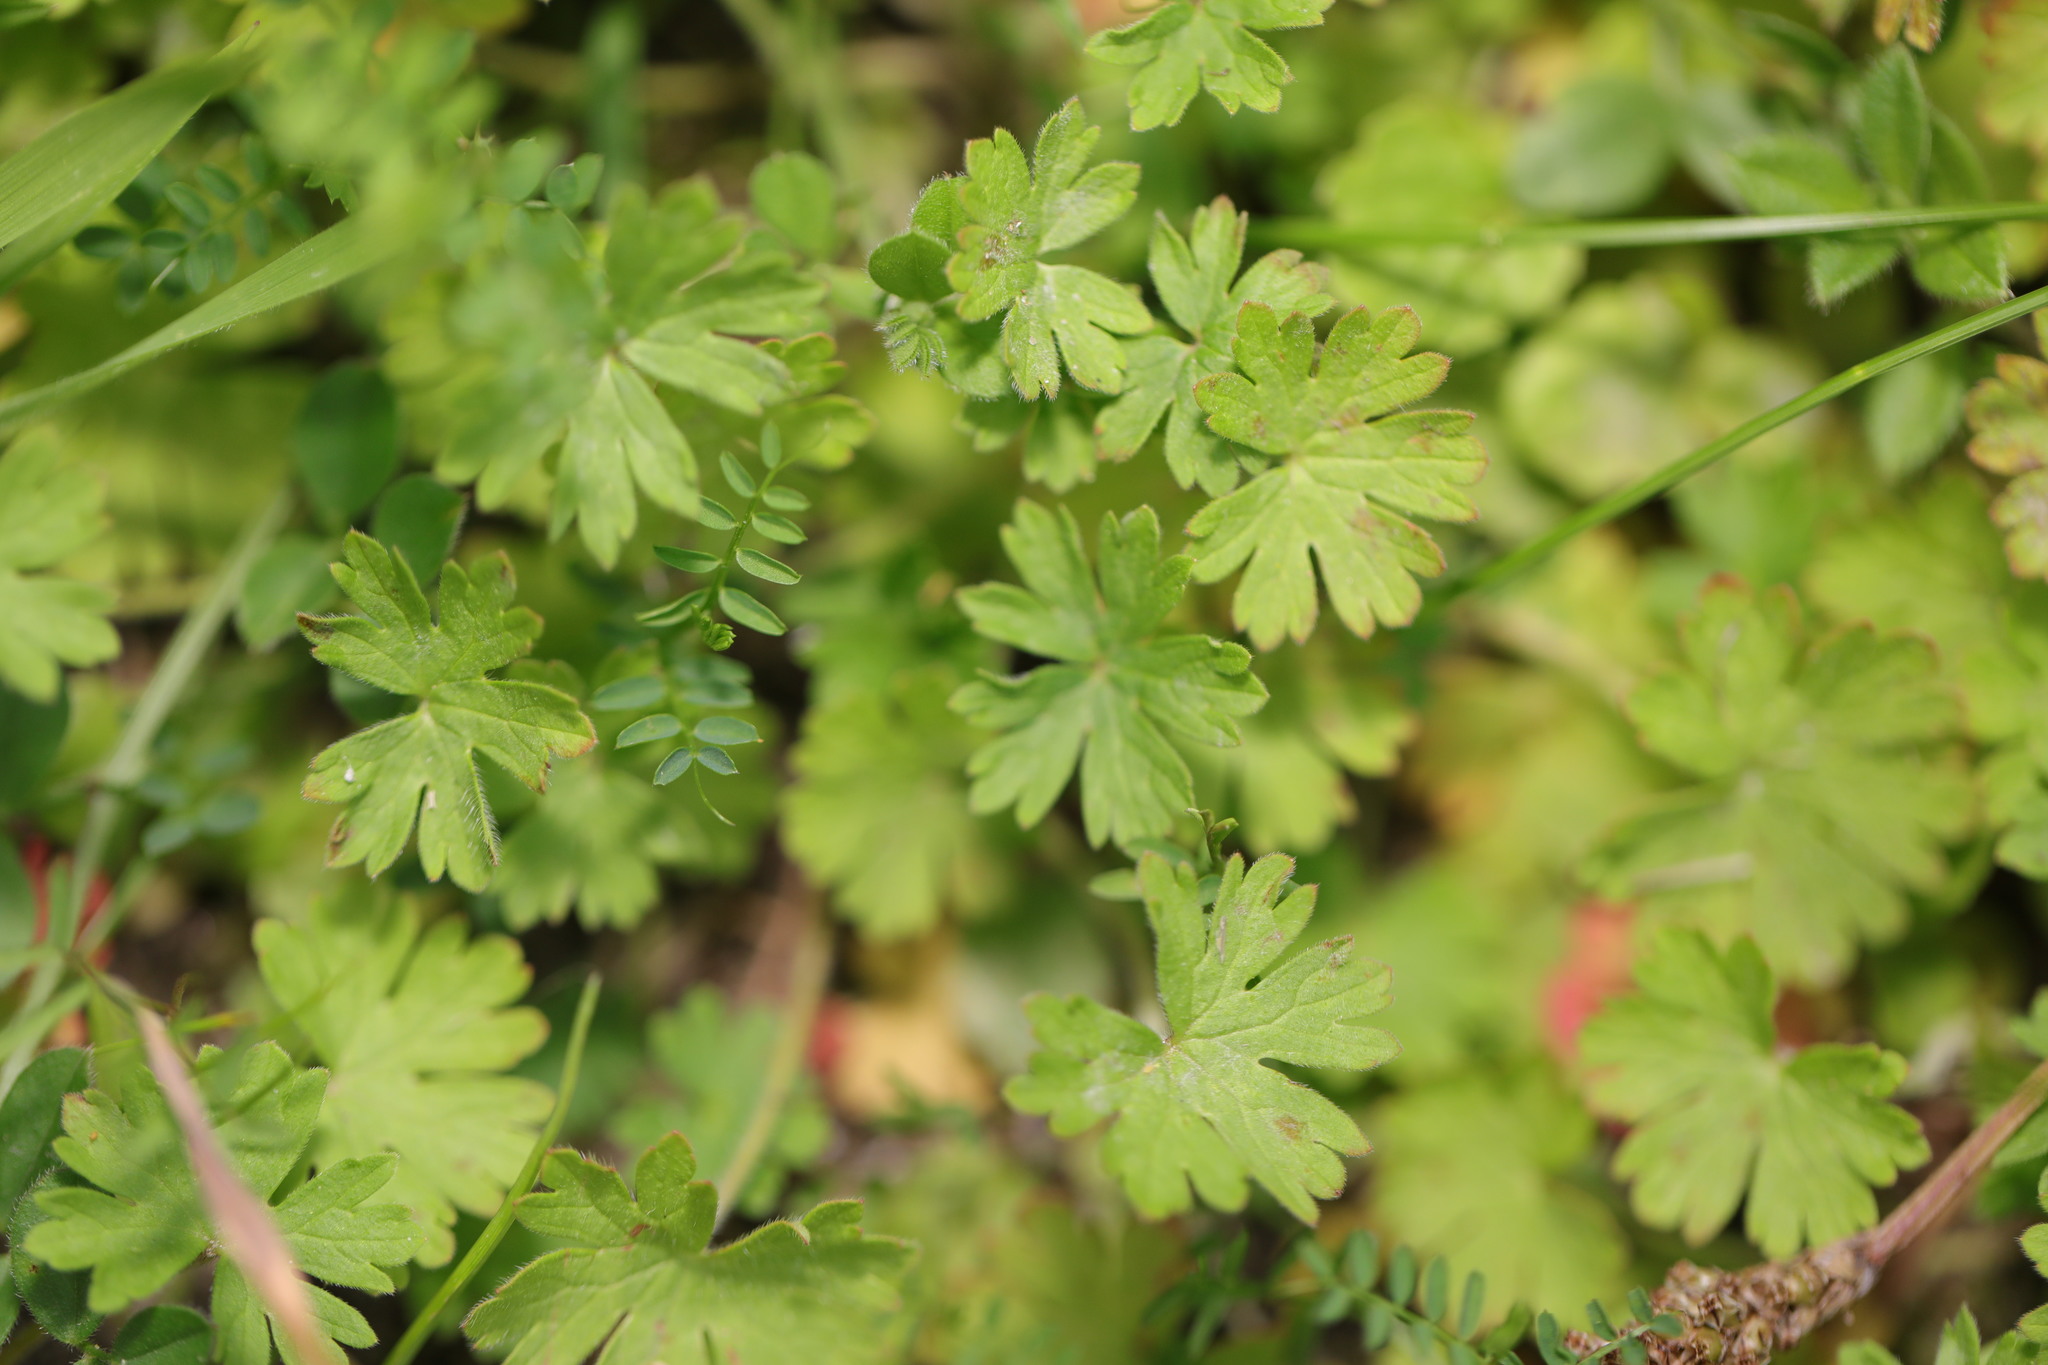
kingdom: Plantae
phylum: Tracheophyta
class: Magnoliopsida
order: Geraniales
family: Geraniaceae
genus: Geranium
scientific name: Geranium molle
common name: Dove's-foot crane's-bill
